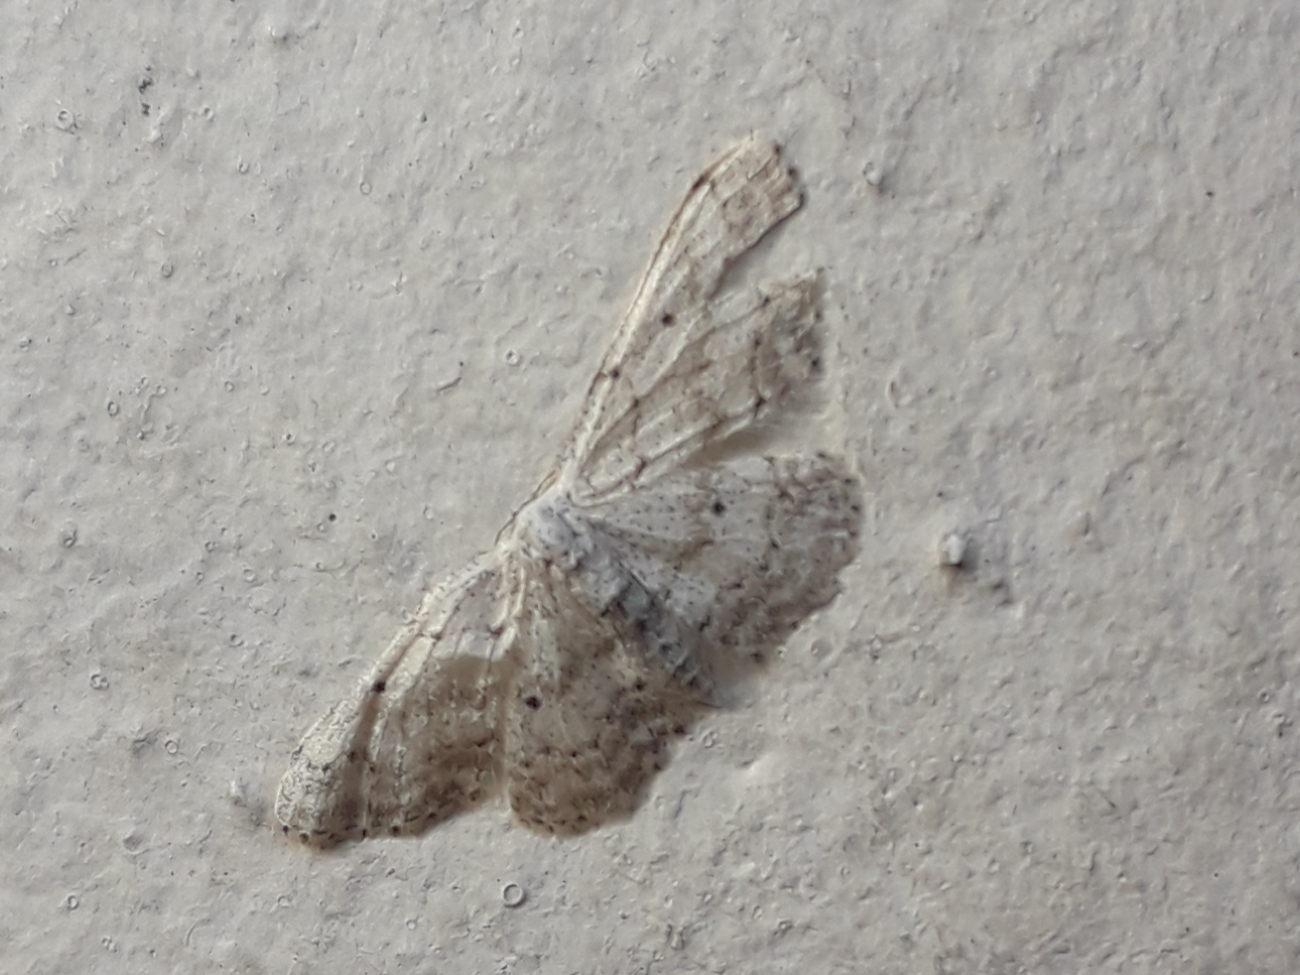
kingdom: Animalia
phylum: Arthropoda
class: Insecta
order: Lepidoptera
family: Geometridae
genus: Idaea
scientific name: Idaea seriata
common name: Small dusty wave
